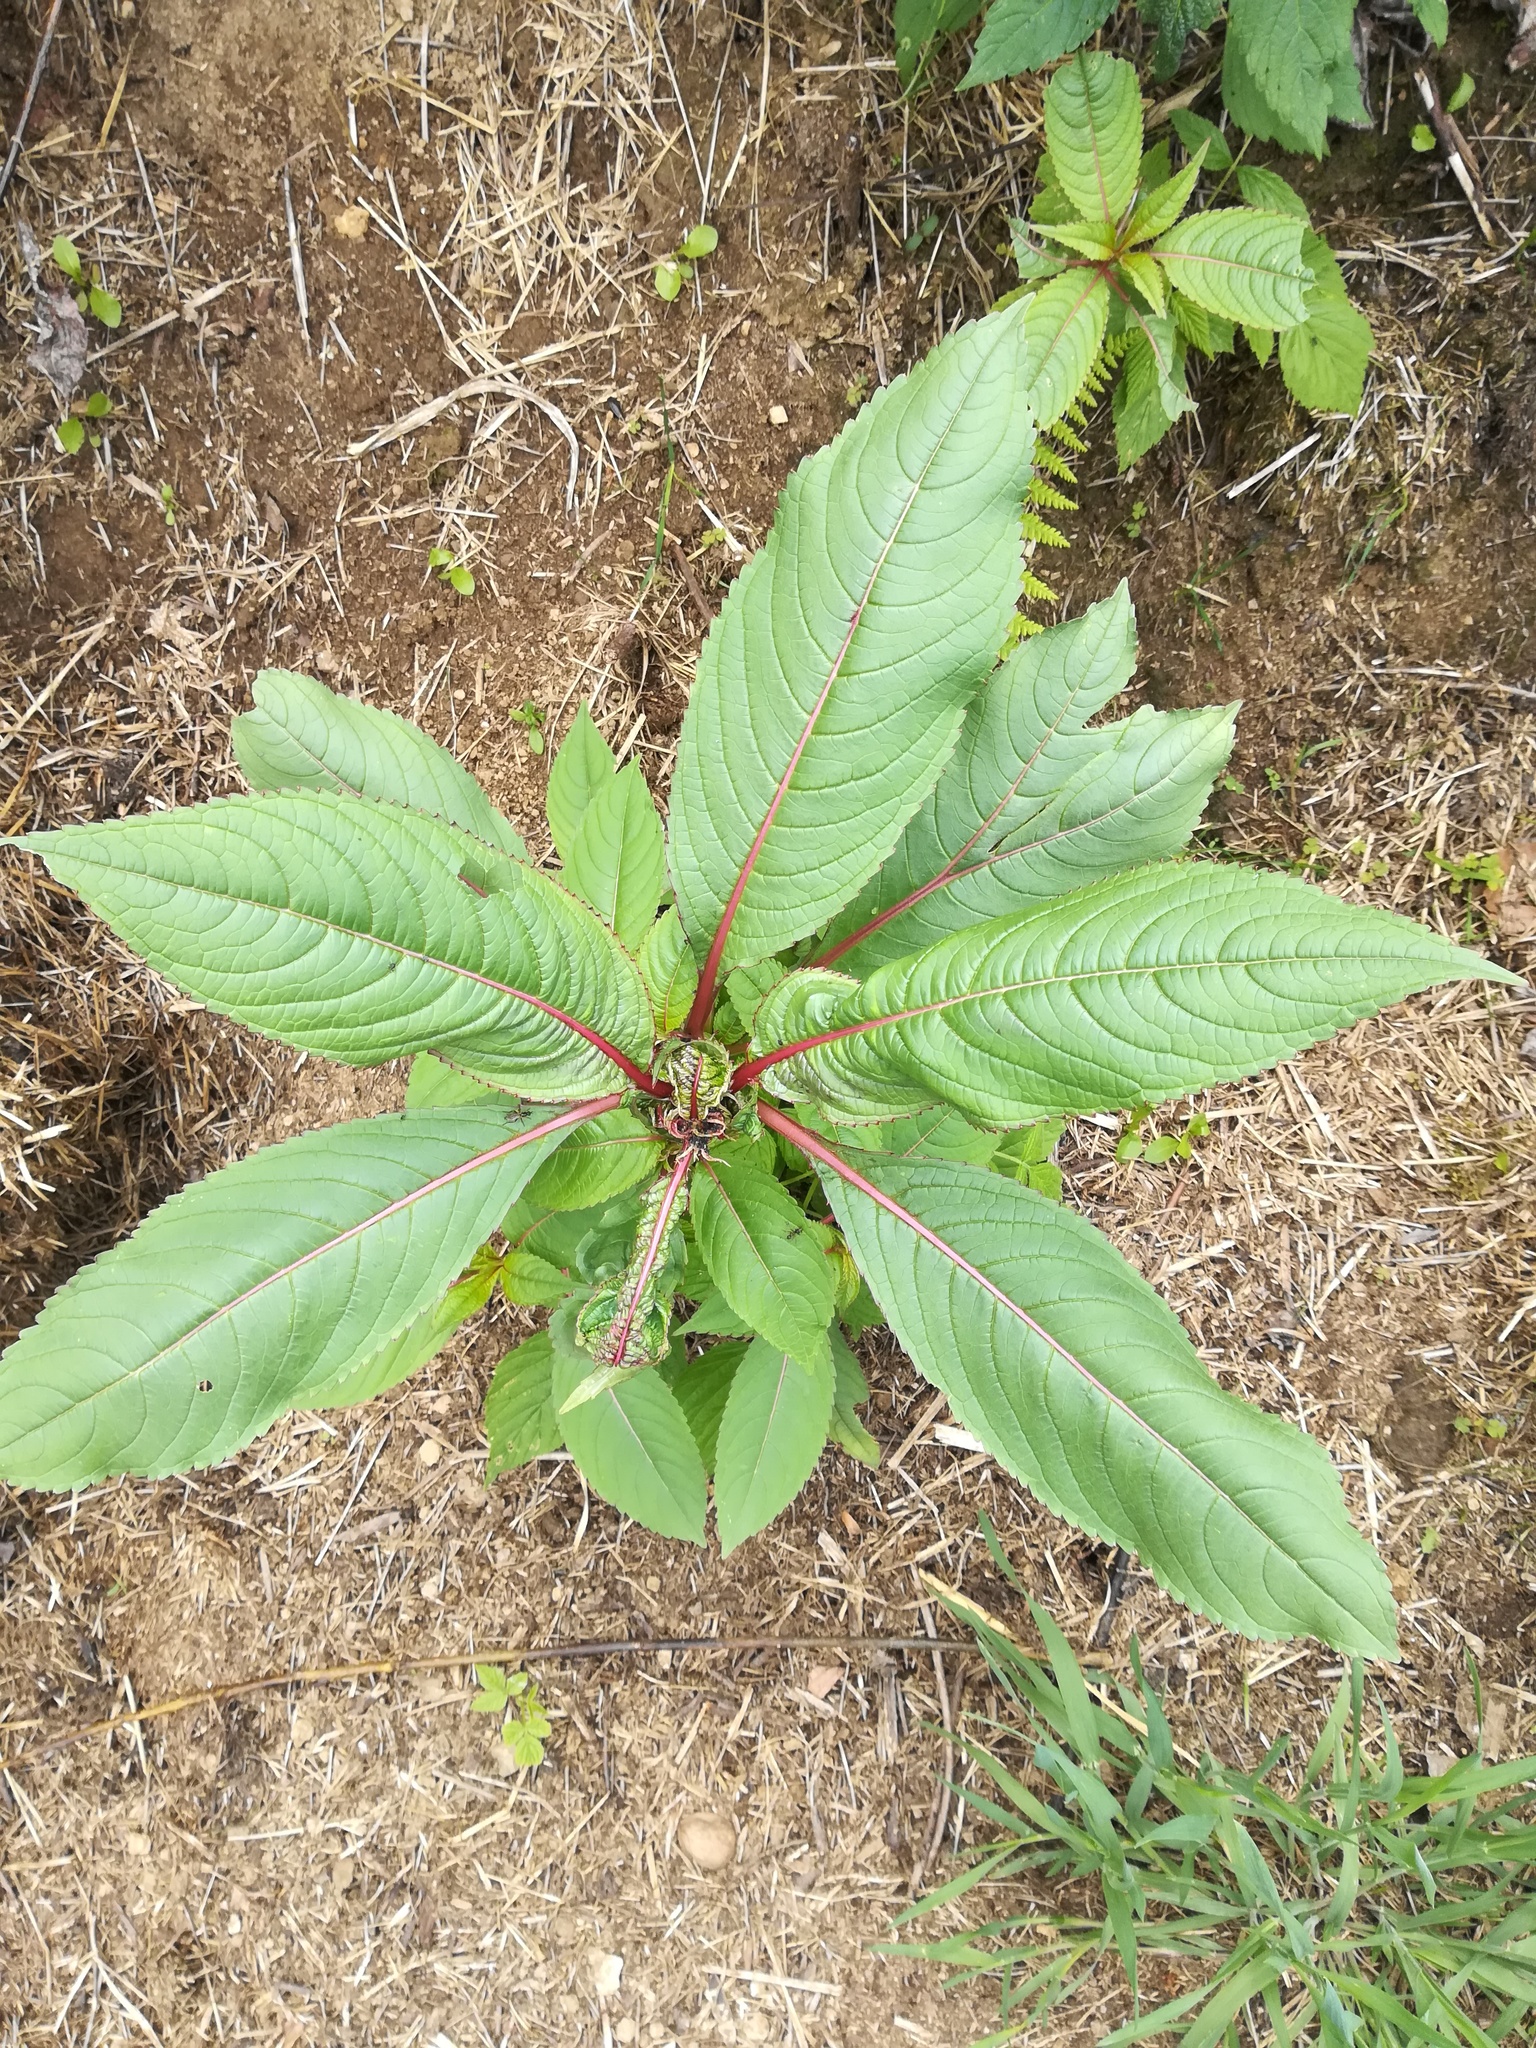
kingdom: Plantae
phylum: Tracheophyta
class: Magnoliopsida
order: Ericales
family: Balsaminaceae
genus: Impatiens
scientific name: Impatiens glandulifera
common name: Himalayan balsam
